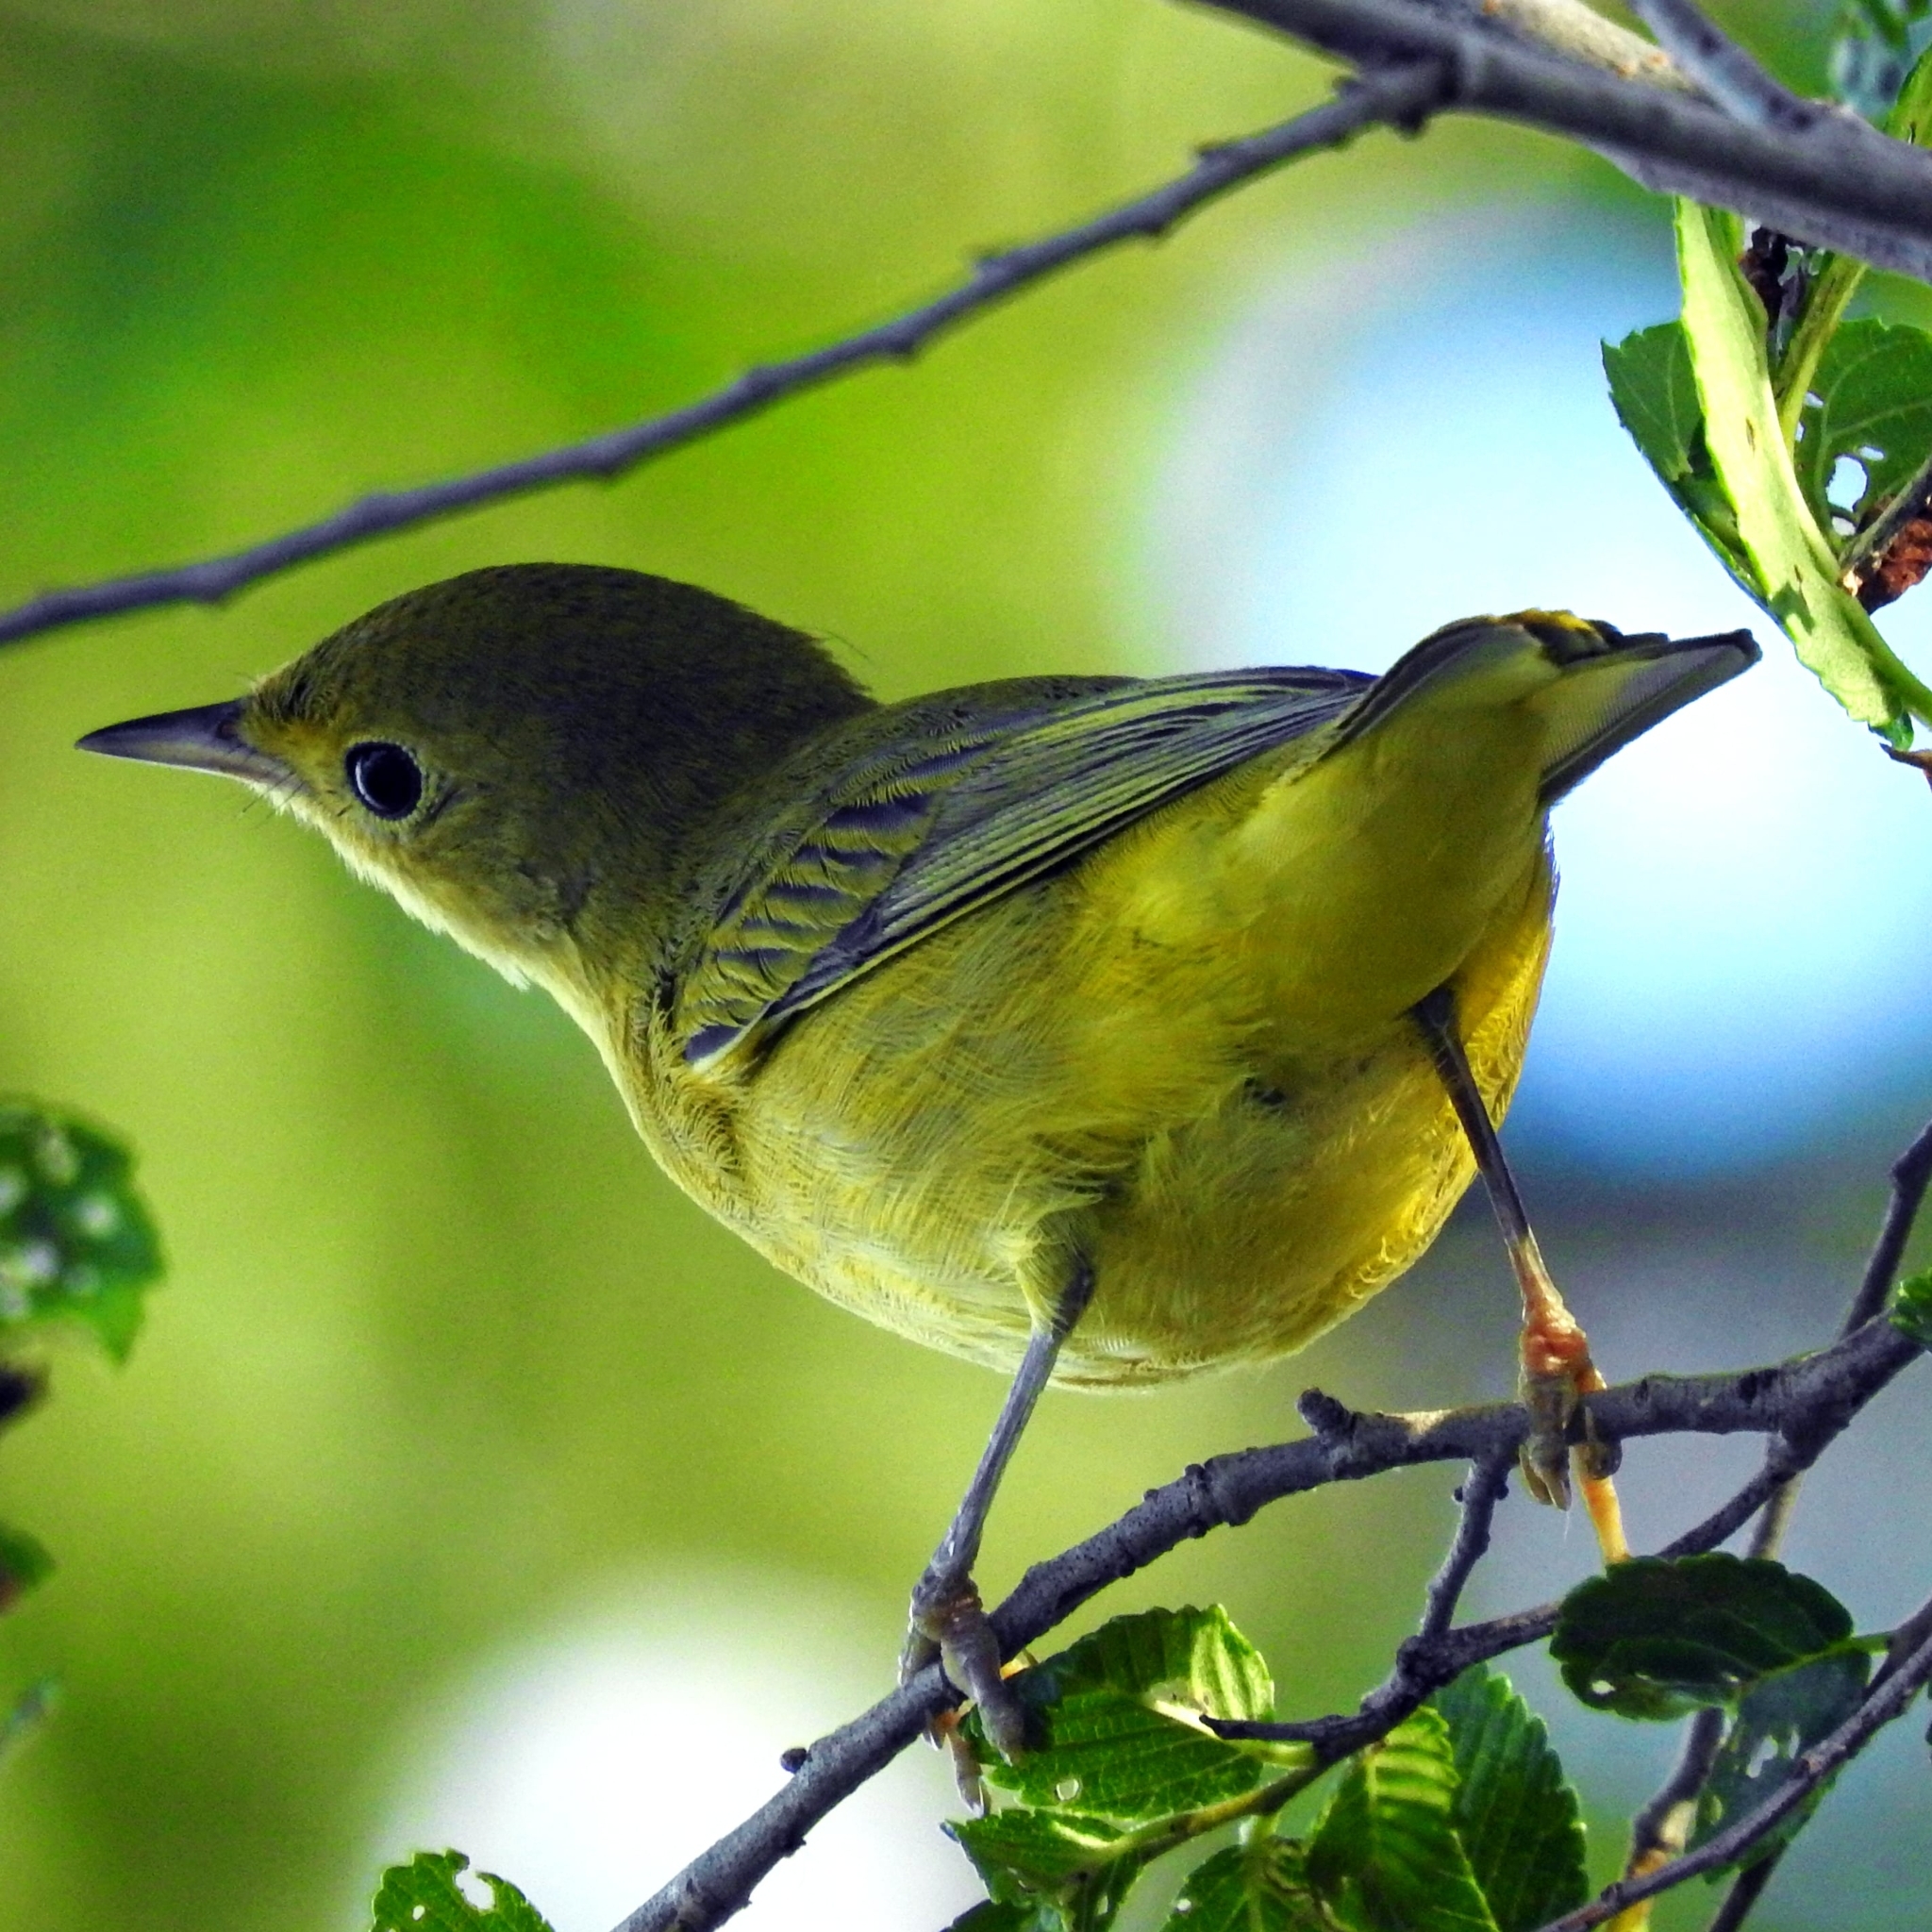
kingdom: Animalia
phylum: Chordata
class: Aves
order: Passeriformes
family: Parulidae
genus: Setophaga
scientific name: Setophaga petechia
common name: Yellow warbler
